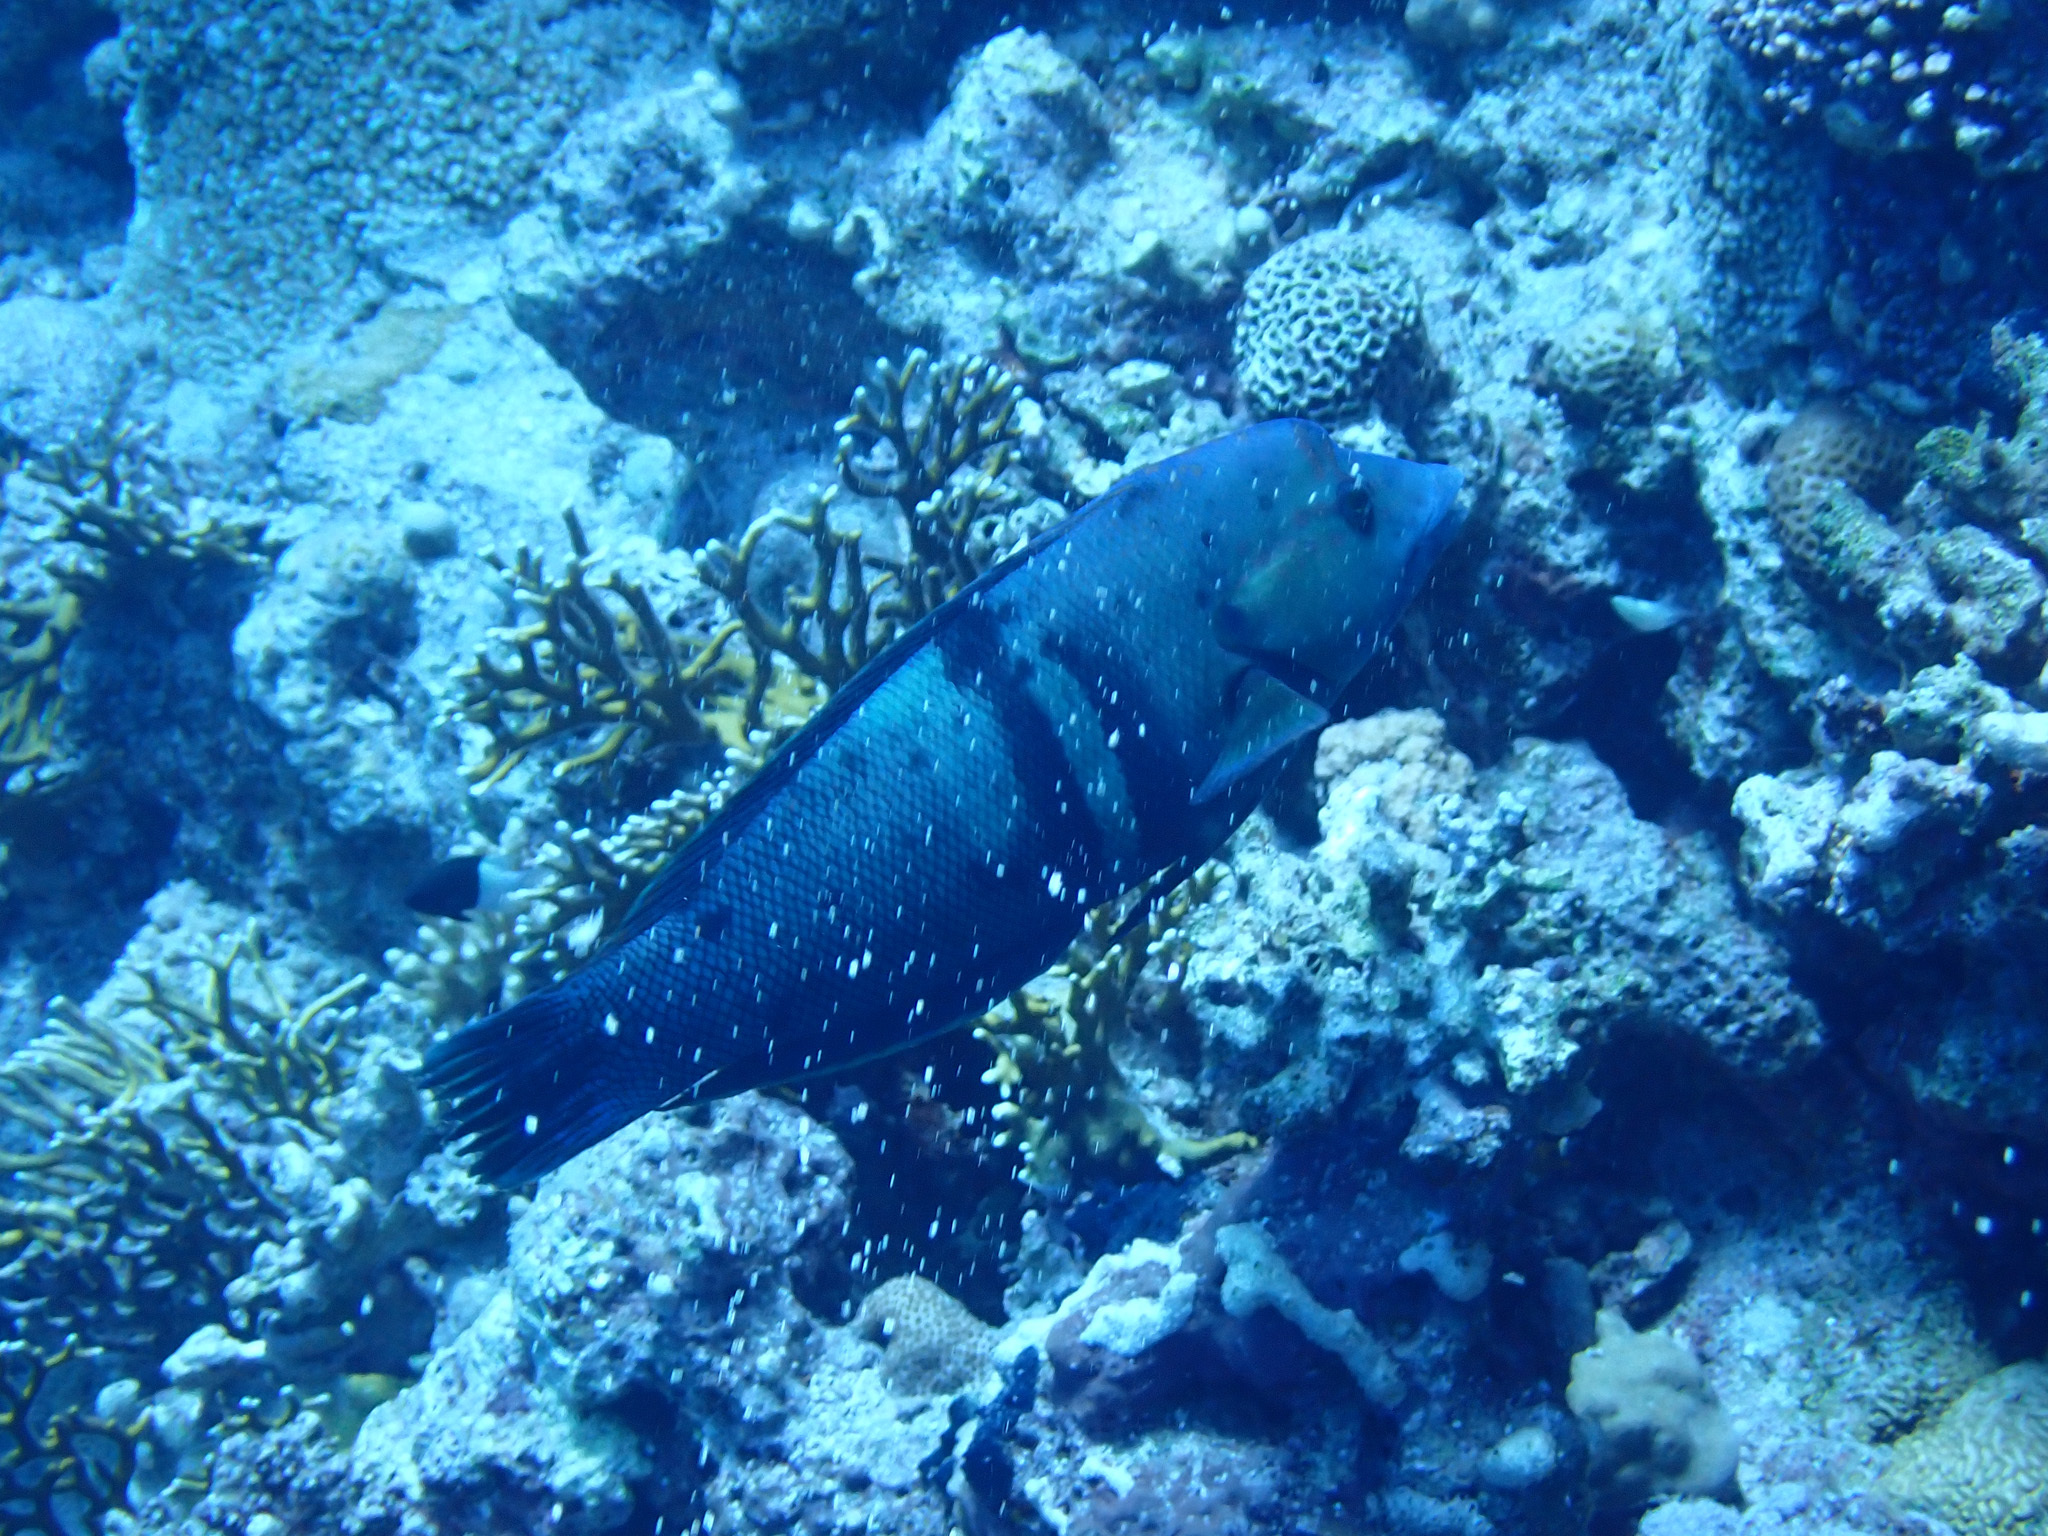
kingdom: Animalia
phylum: Chordata
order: Perciformes
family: Labridae
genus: Coris
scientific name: Coris aygula
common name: Clown coris
